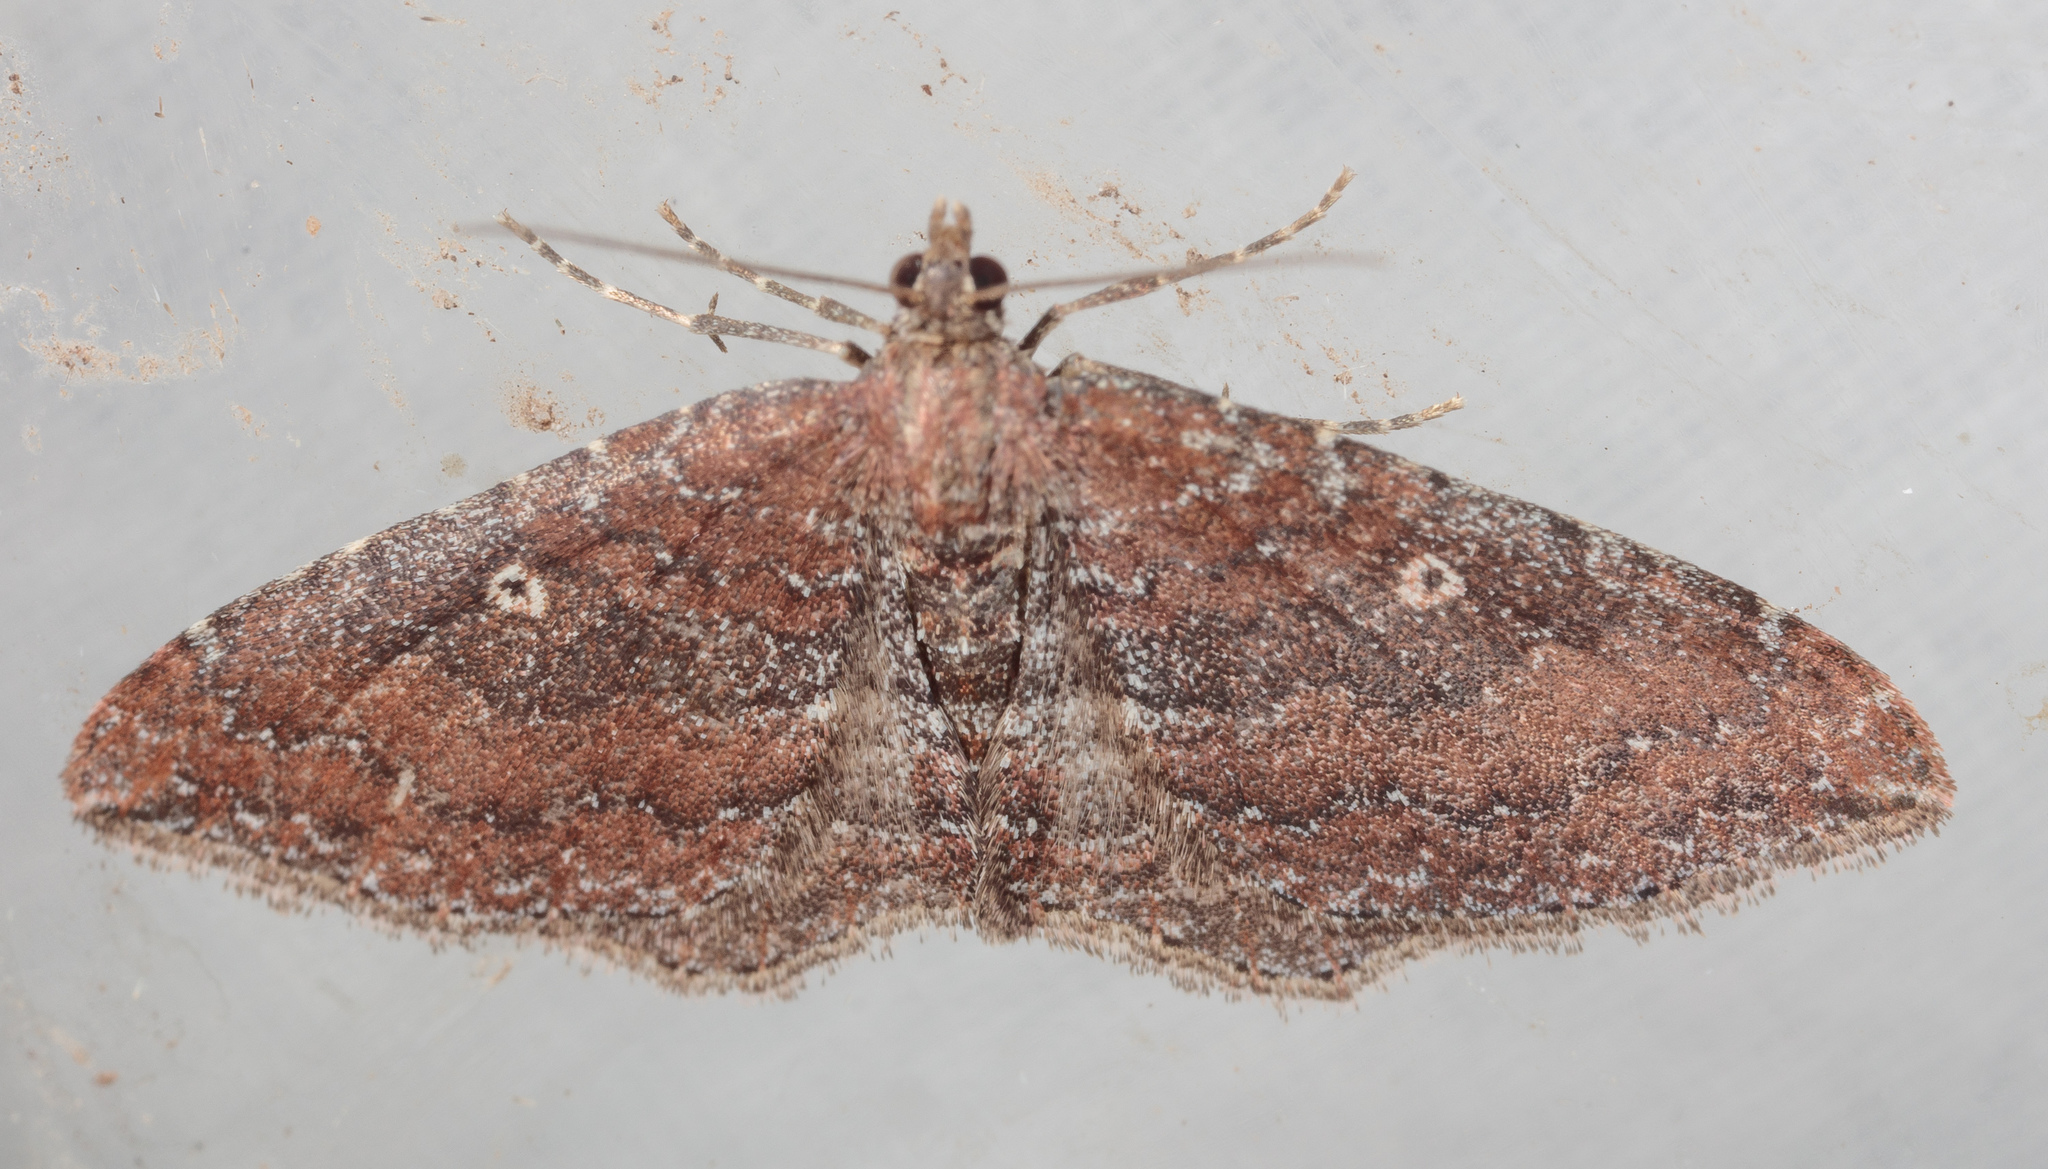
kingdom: Animalia
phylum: Arthropoda
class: Insecta
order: Lepidoptera
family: Geometridae
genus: Orthonama
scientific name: Orthonama obstipata
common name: The gem
